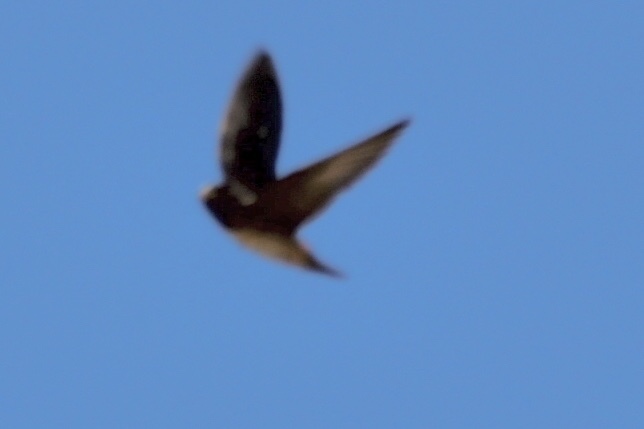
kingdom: Animalia
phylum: Chordata
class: Aves
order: Passeriformes
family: Hirundinidae
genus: Petrochelidon
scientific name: Petrochelidon pyrrhonota
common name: American cliff swallow
